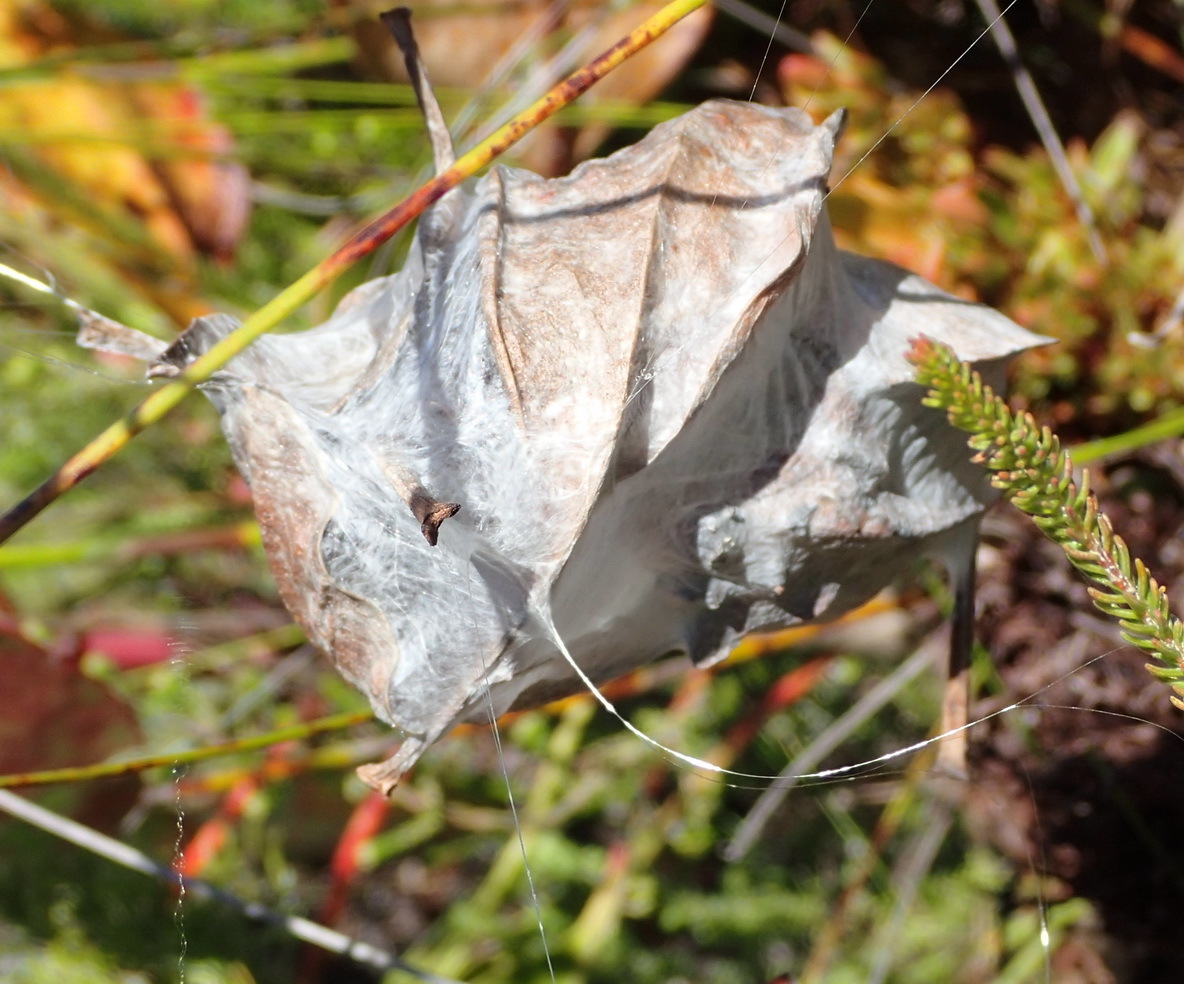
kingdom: Animalia
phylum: Arthropoda
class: Arachnida
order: Araneae
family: Sparassidae
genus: Palystes
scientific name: Palystes superciliosus
